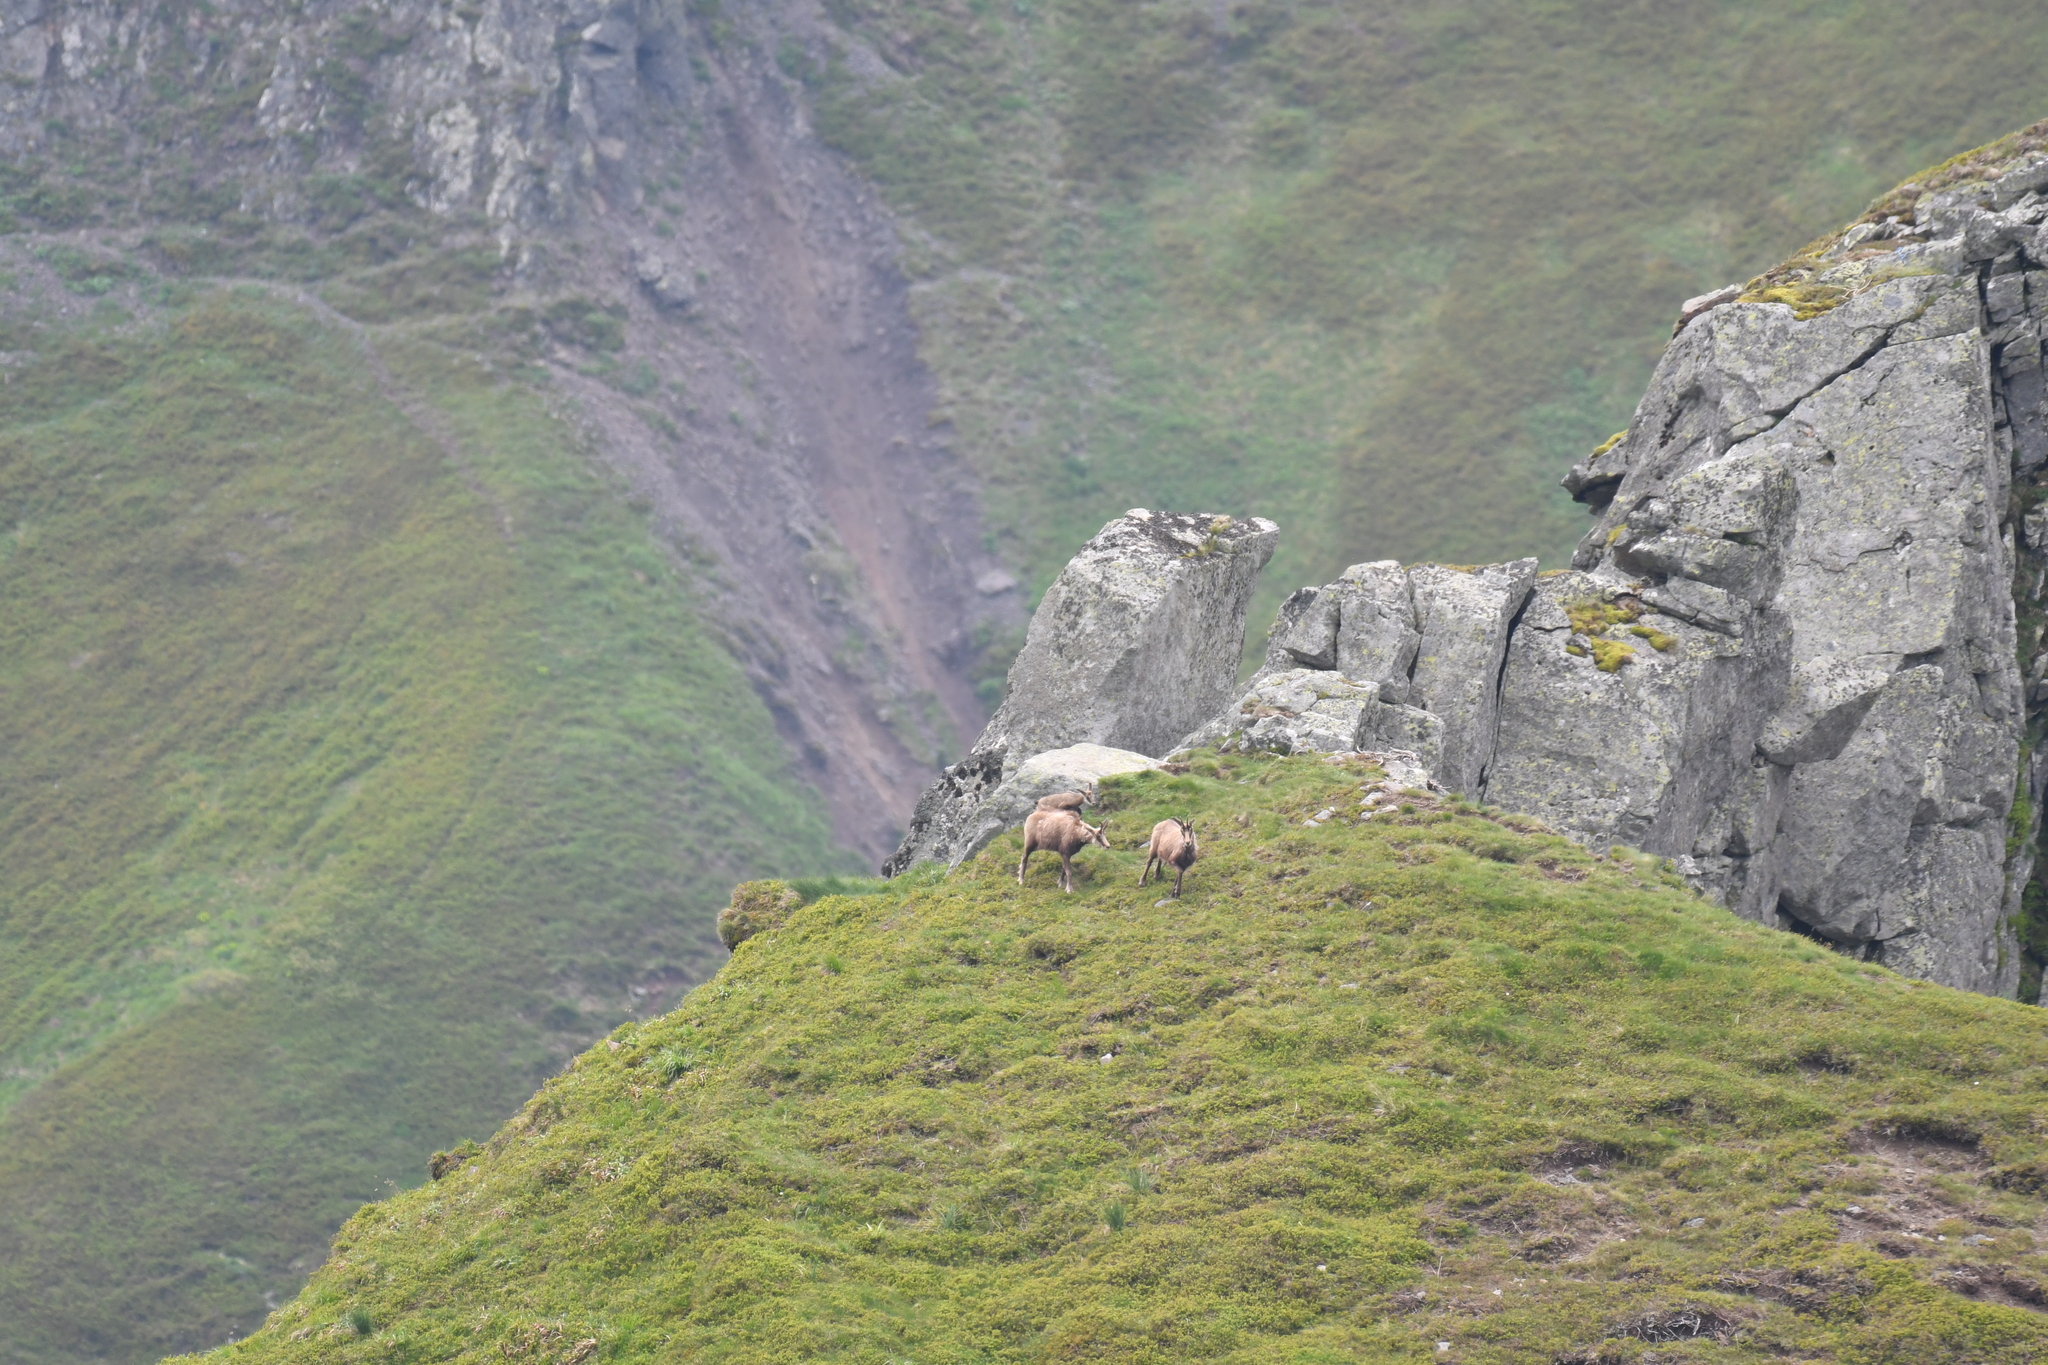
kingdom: Animalia
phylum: Chordata
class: Mammalia
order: Artiodactyla
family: Bovidae
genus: Rupicapra
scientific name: Rupicapra rupicapra
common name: Chamois
